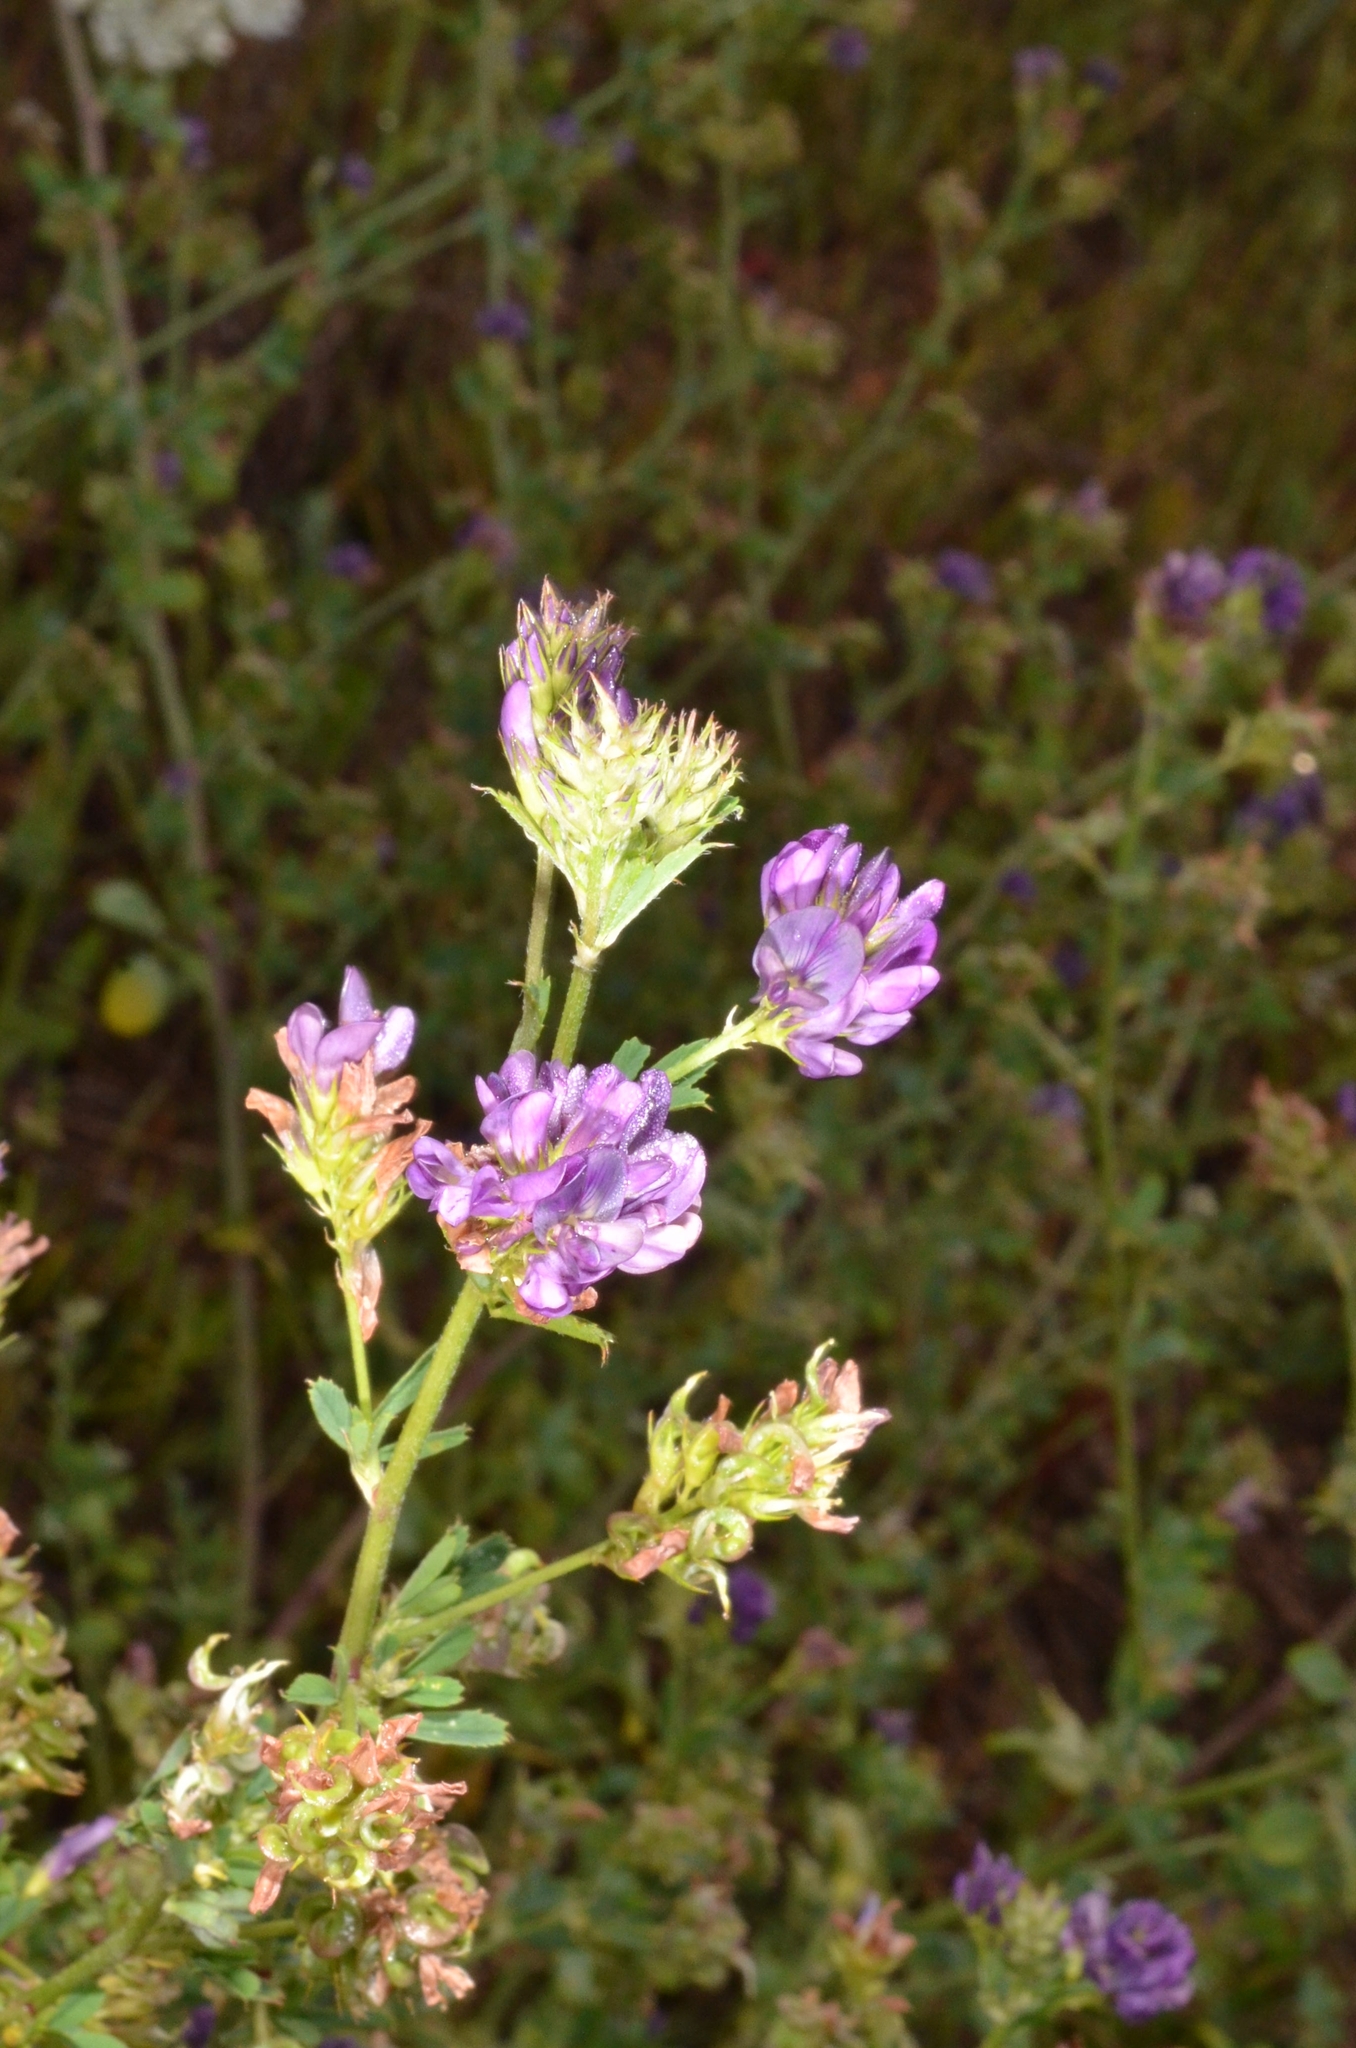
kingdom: Plantae
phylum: Tracheophyta
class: Magnoliopsida
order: Fabales
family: Fabaceae
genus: Medicago
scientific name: Medicago sativa
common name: Alfalfa
